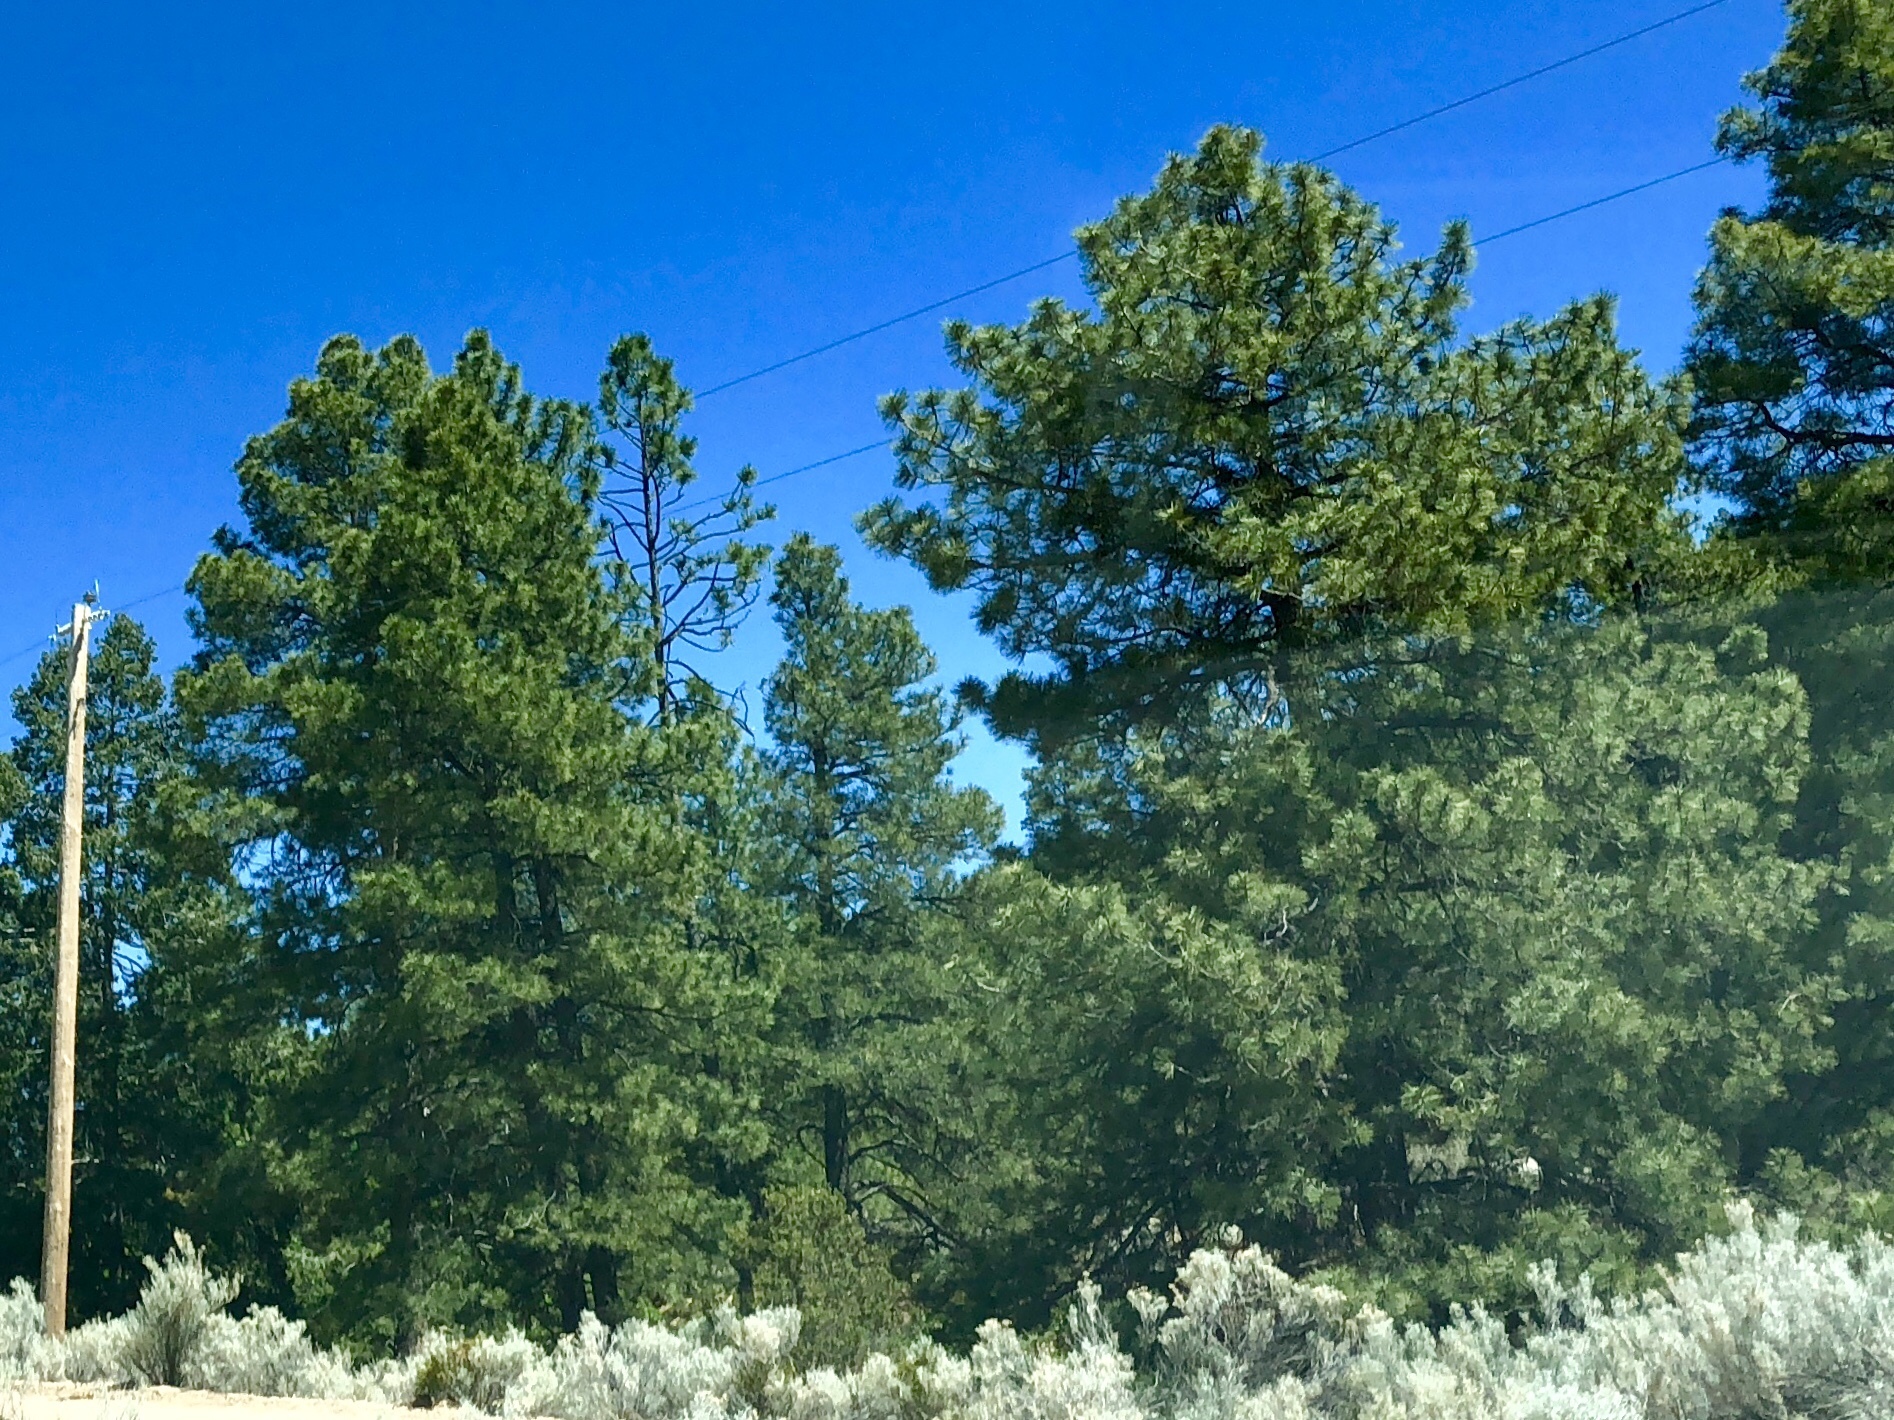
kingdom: Plantae
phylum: Tracheophyta
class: Pinopsida
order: Pinales
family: Pinaceae
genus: Pinus
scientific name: Pinus ponderosa
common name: Western yellow-pine
